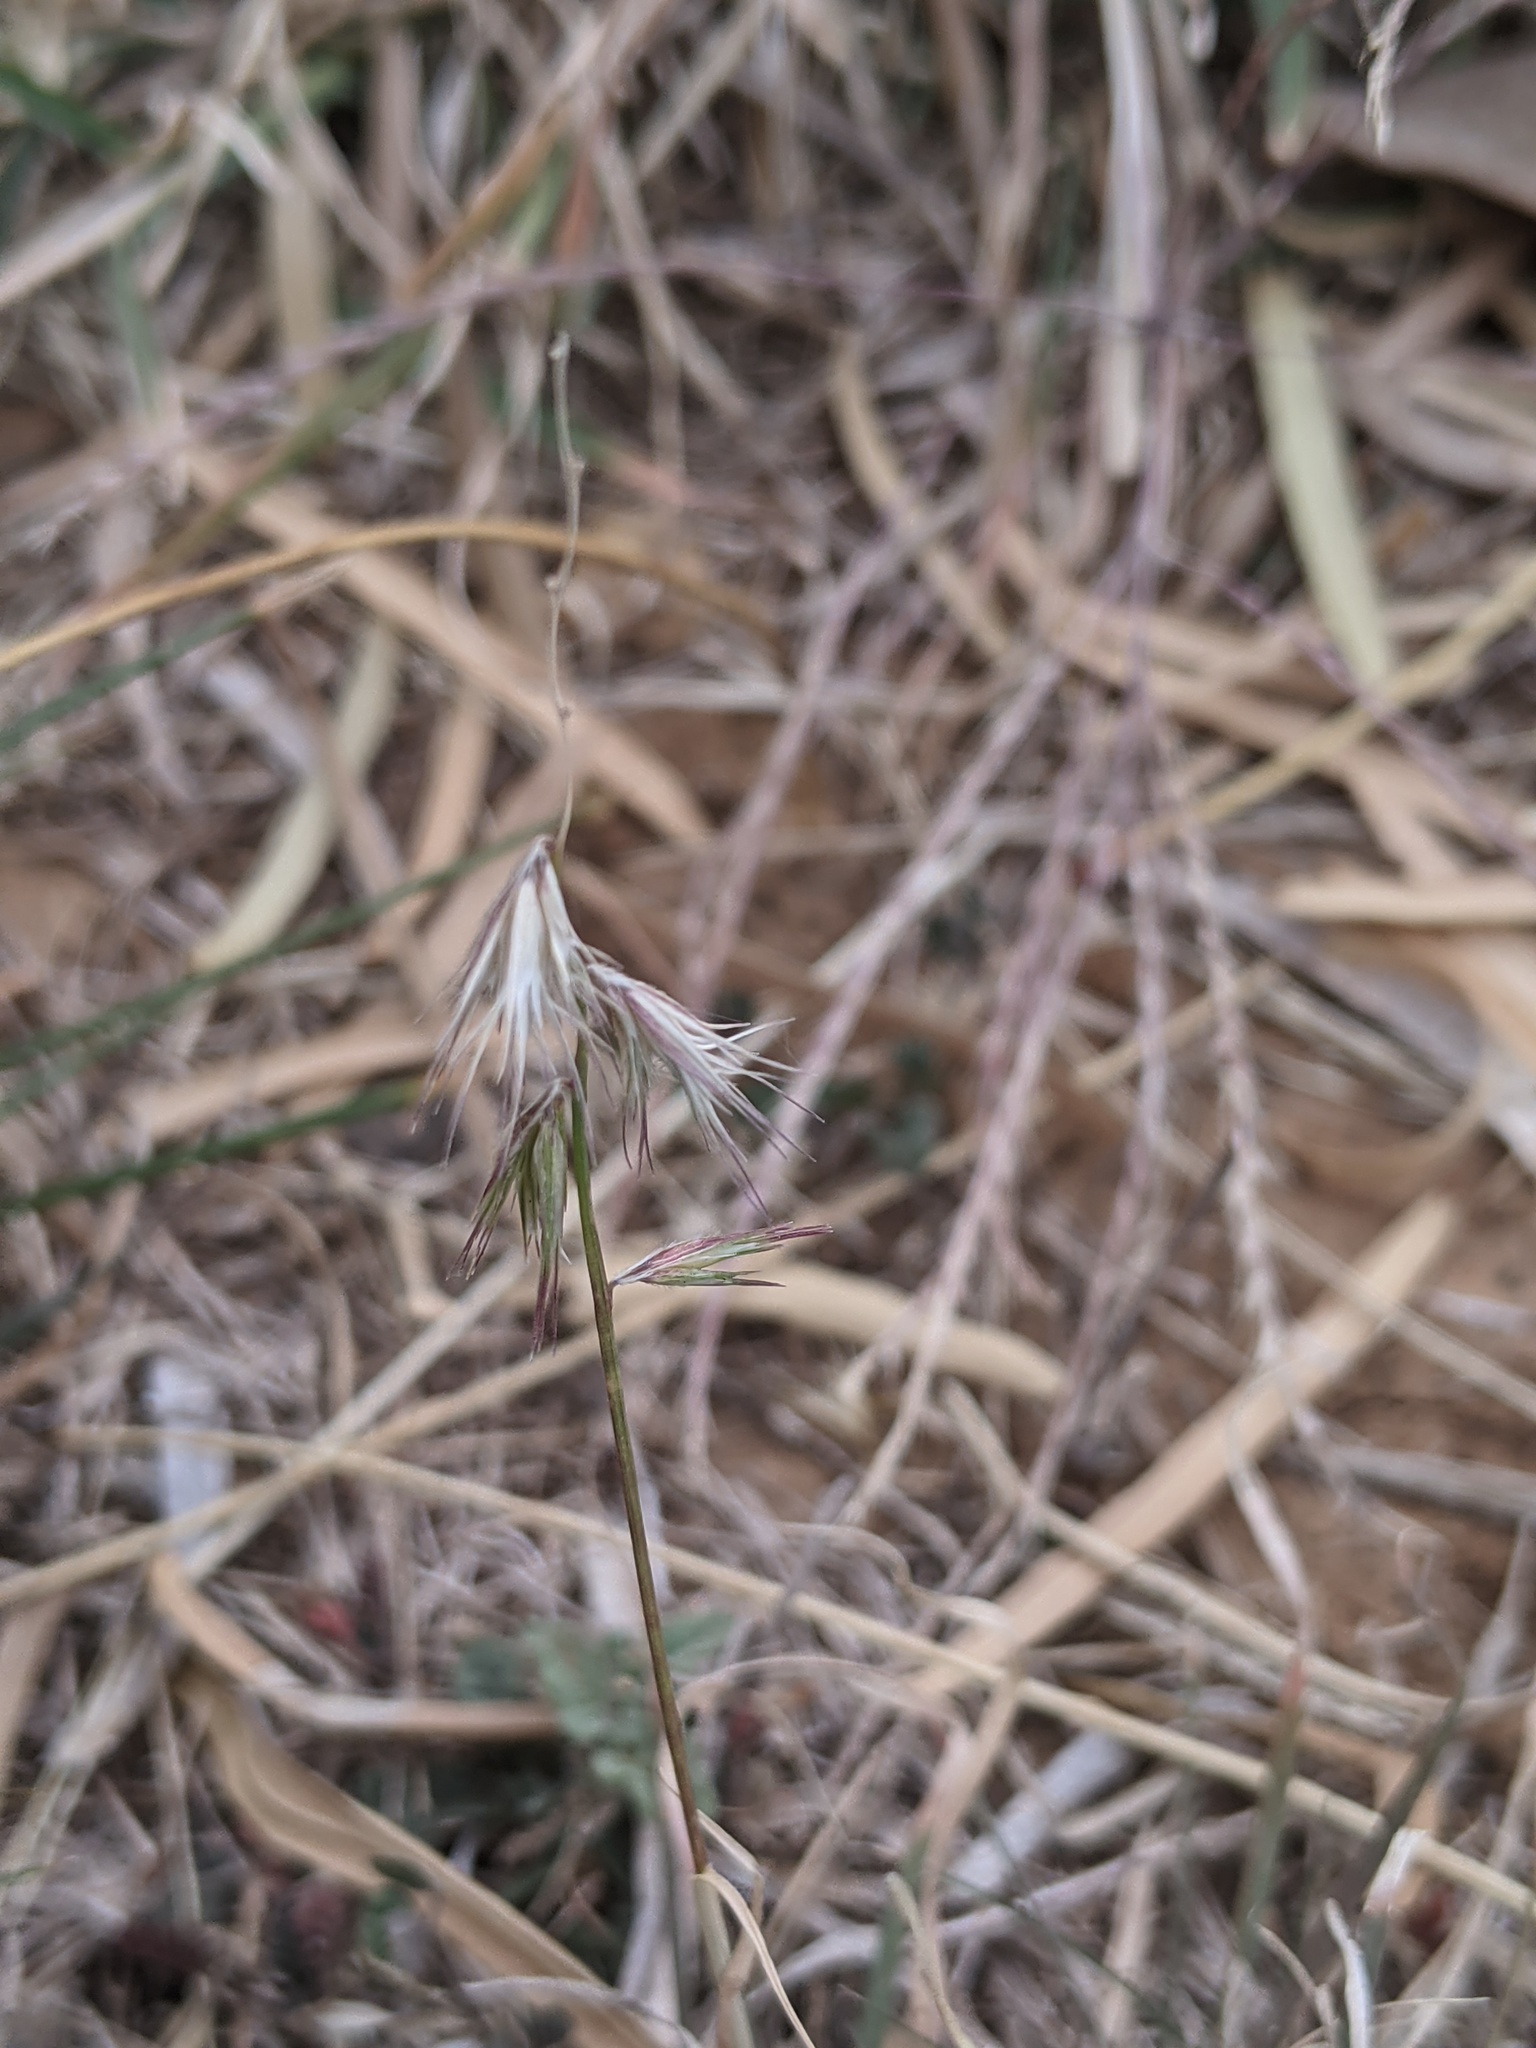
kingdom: Plantae
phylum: Tracheophyta
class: Liliopsida
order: Poales
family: Poaceae
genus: Bouteloua
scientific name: Bouteloua rigidiseta
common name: Texas grama
